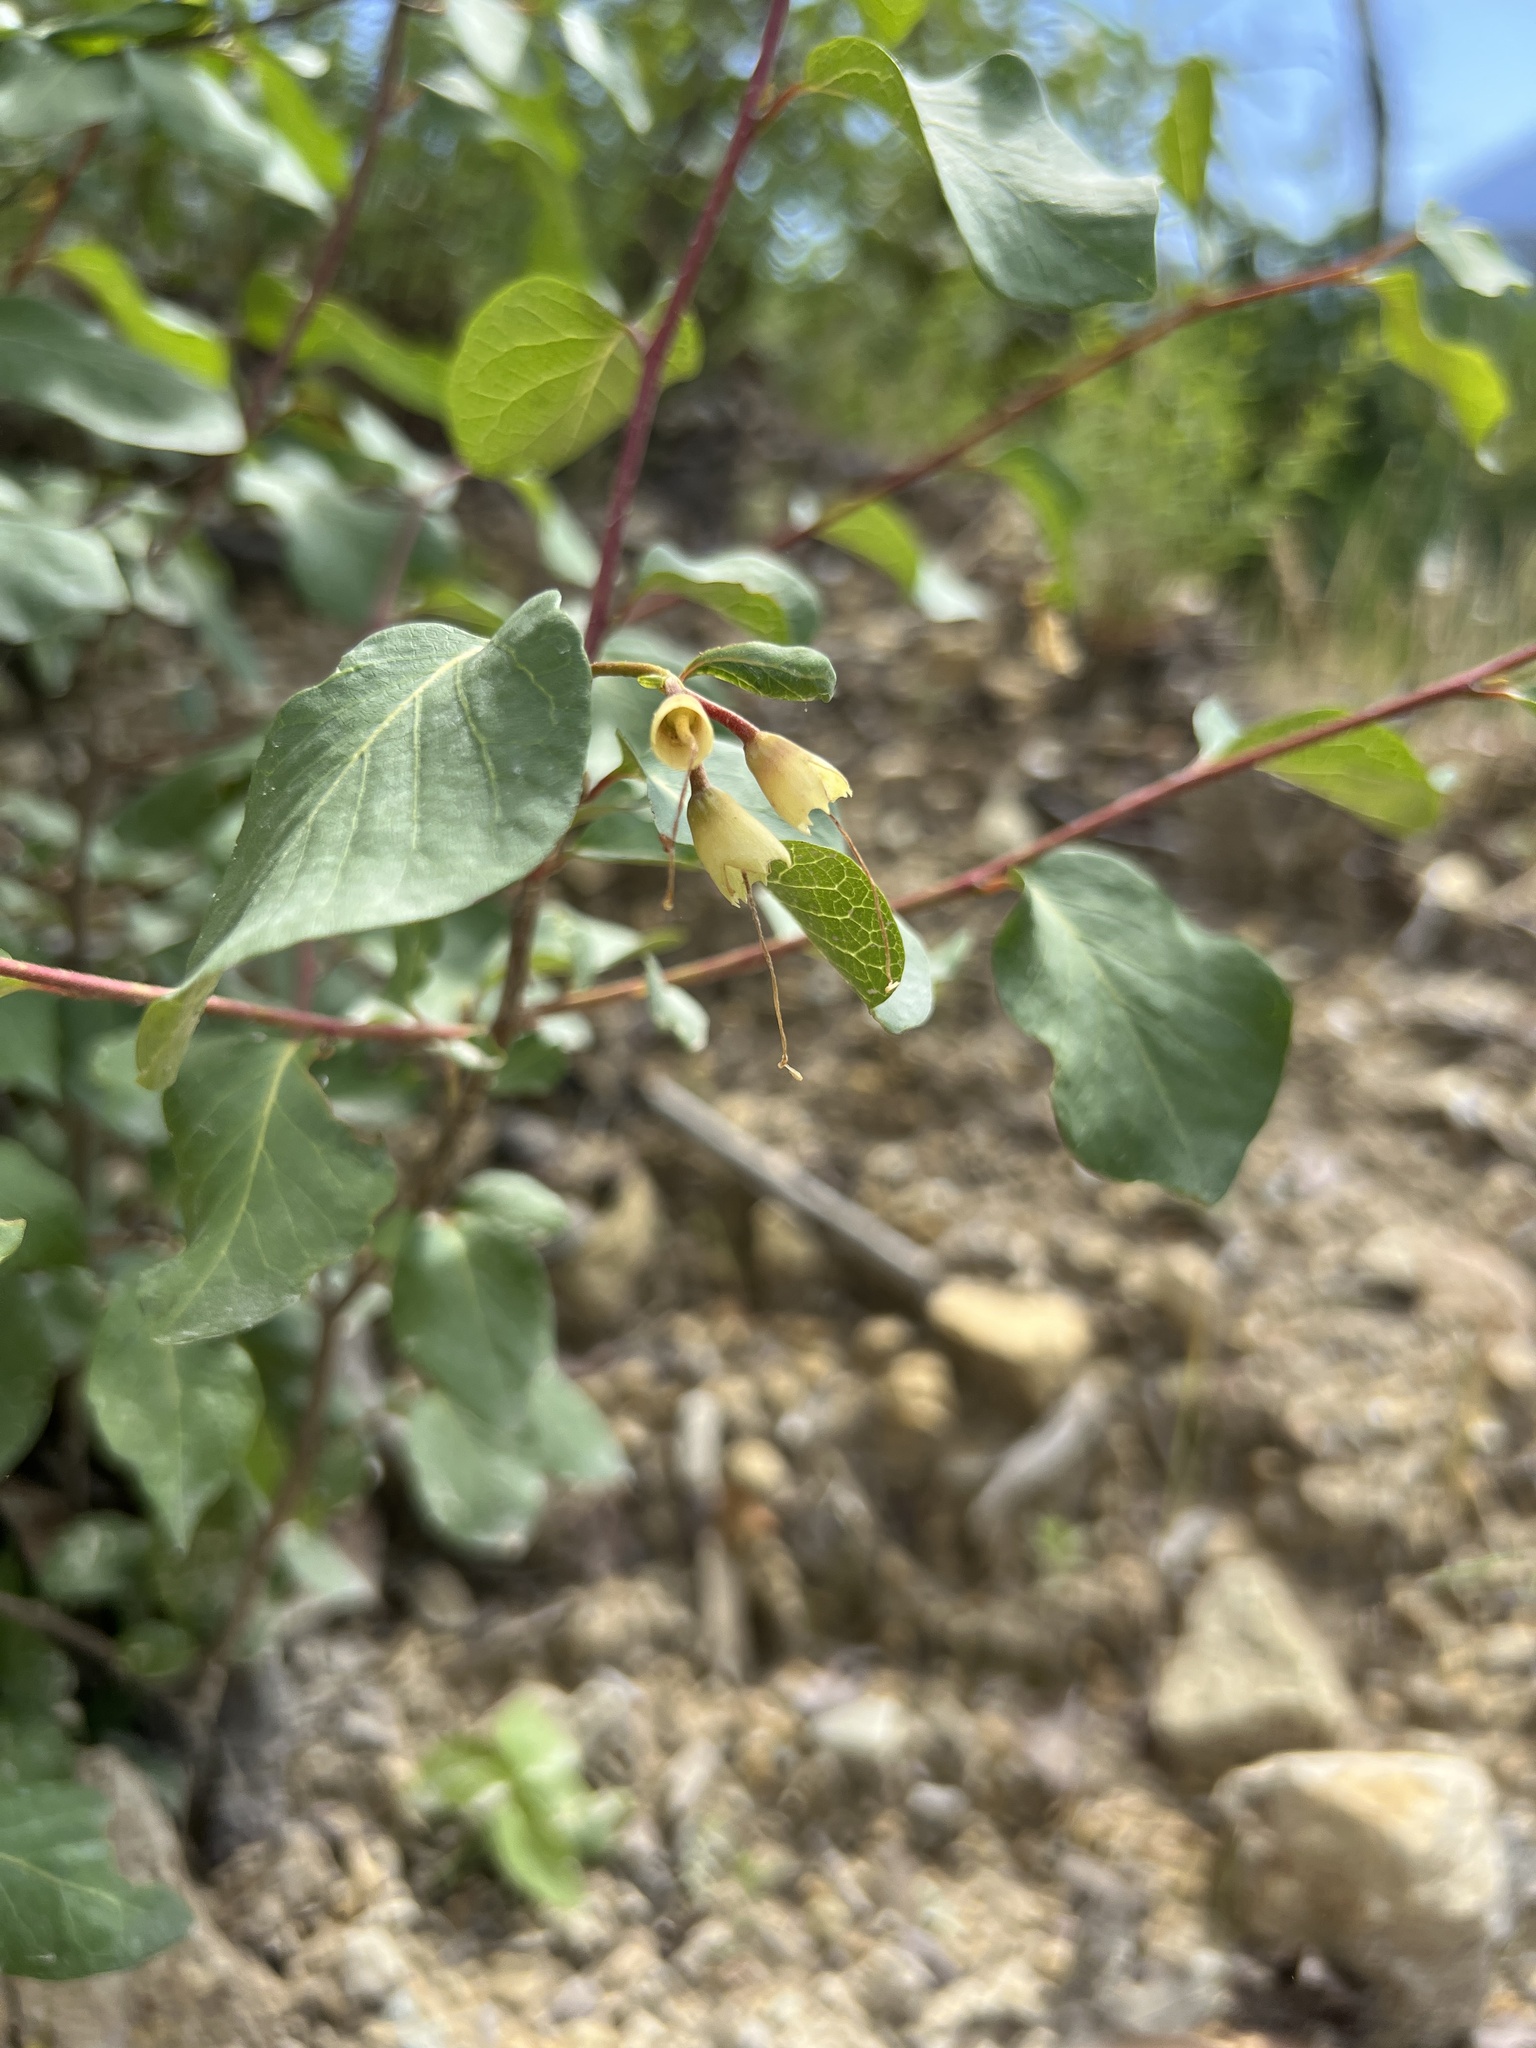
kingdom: Plantae
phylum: Tracheophyta
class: Magnoliopsida
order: Ericales
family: Styracaceae
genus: Styrax
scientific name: Styrax redivivus
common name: California styrax
